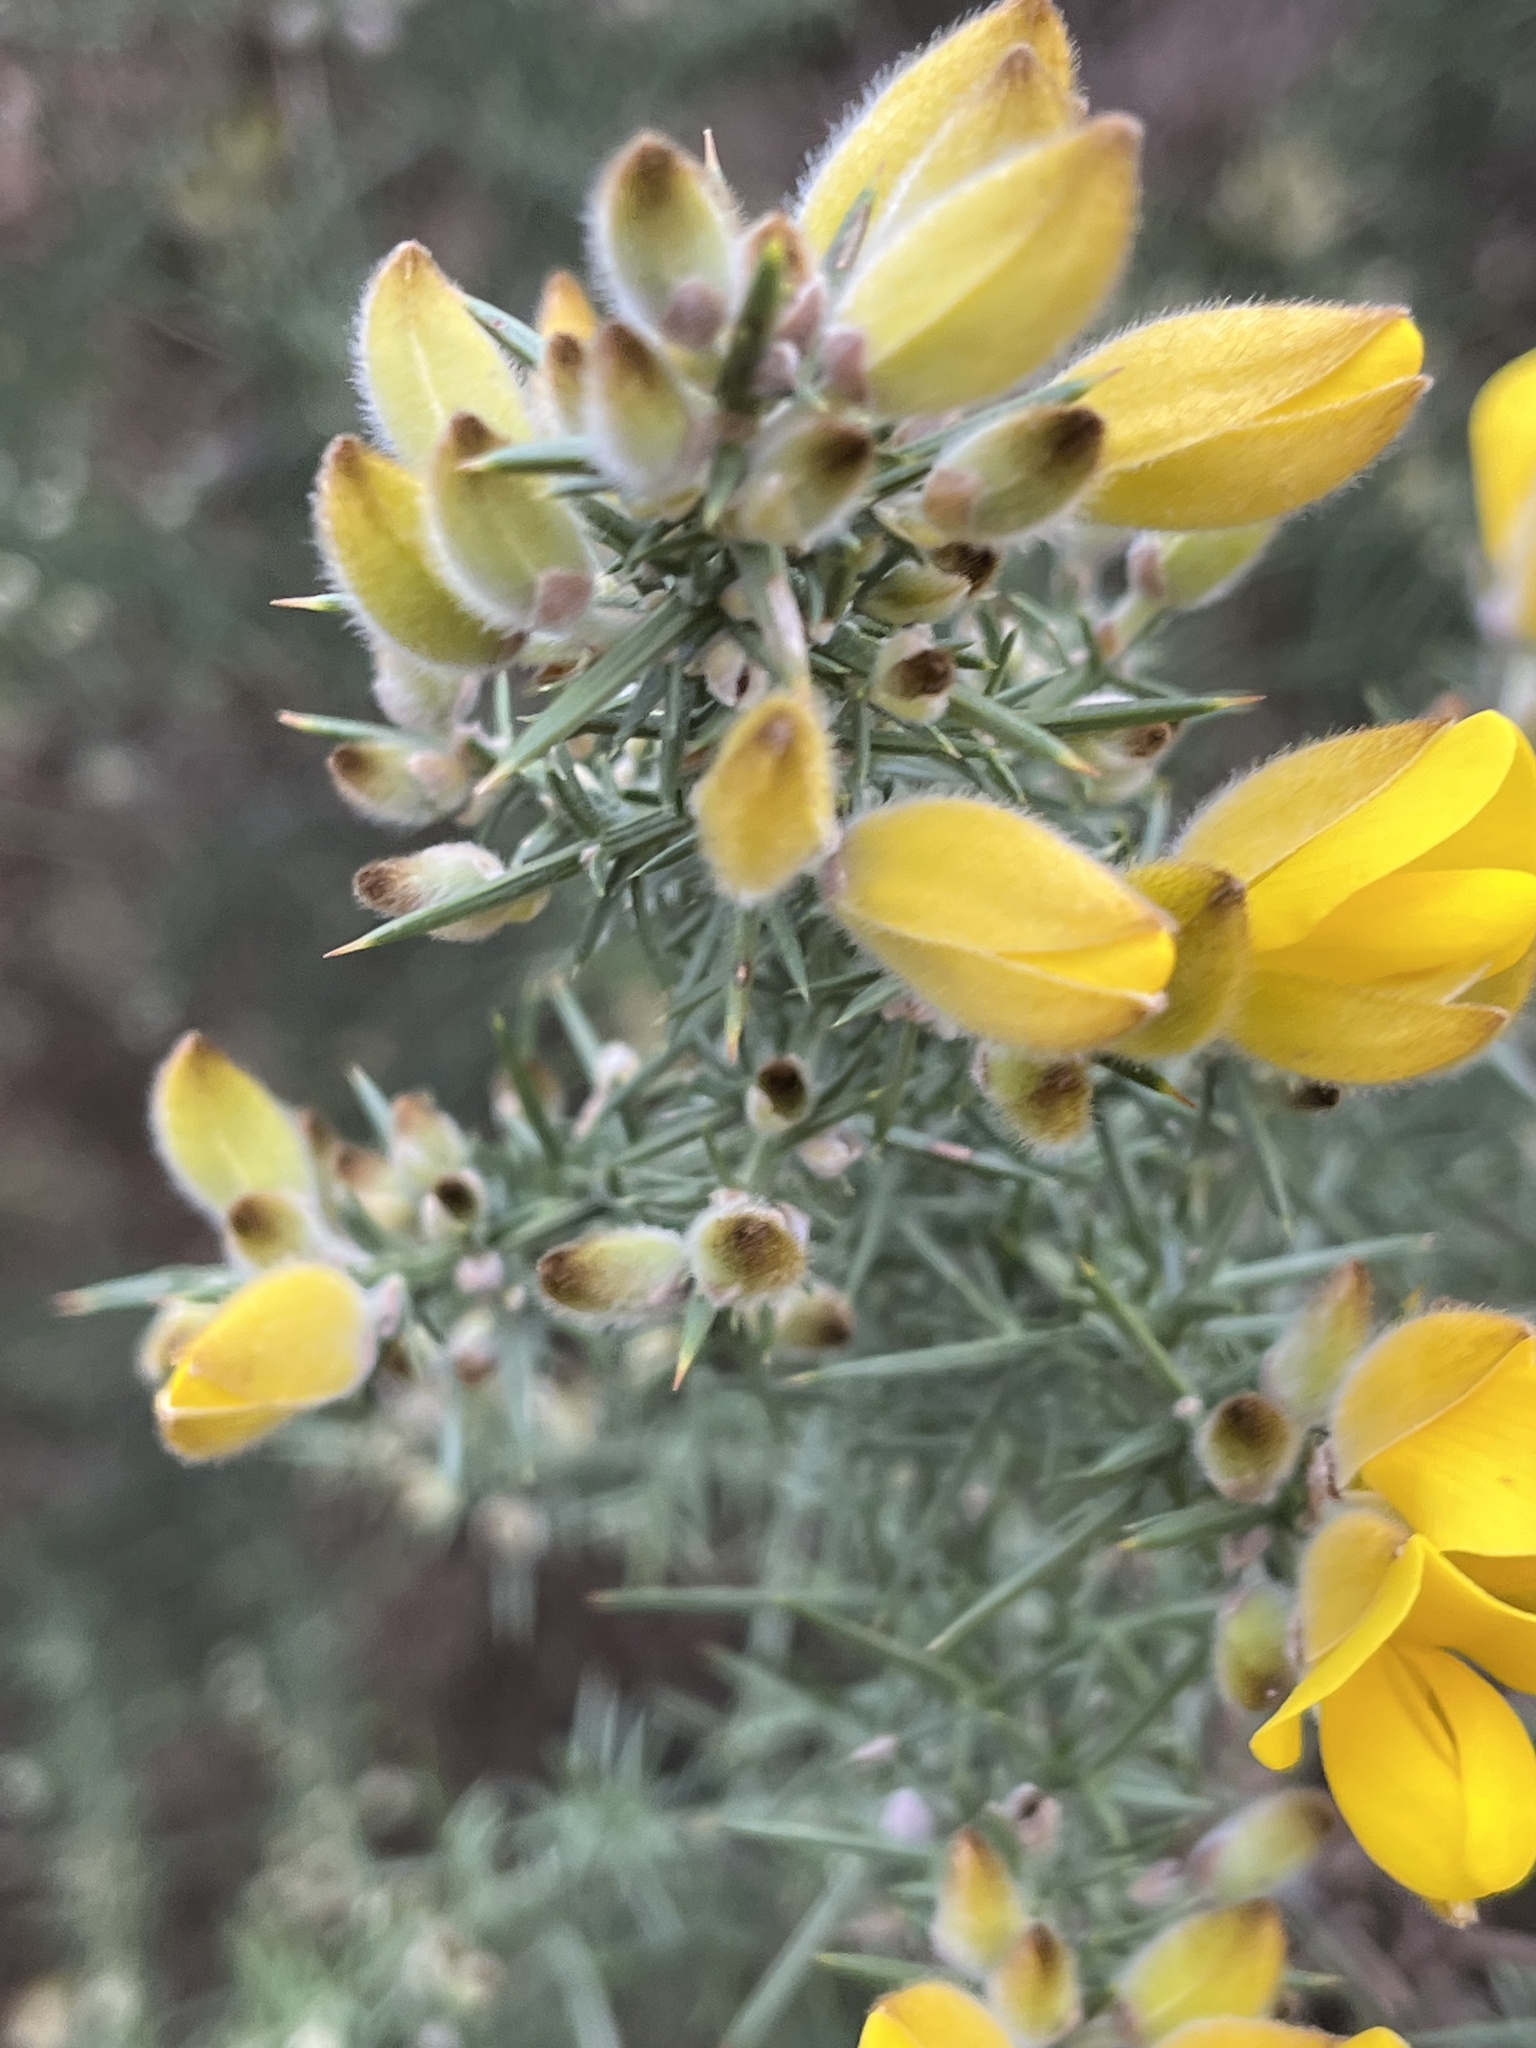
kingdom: Plantae
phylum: Tracheophyta
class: Magnoliopsida
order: Fabales
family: Fabaceae
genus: Ulex
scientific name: Ulex europaeus
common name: Common gorse
